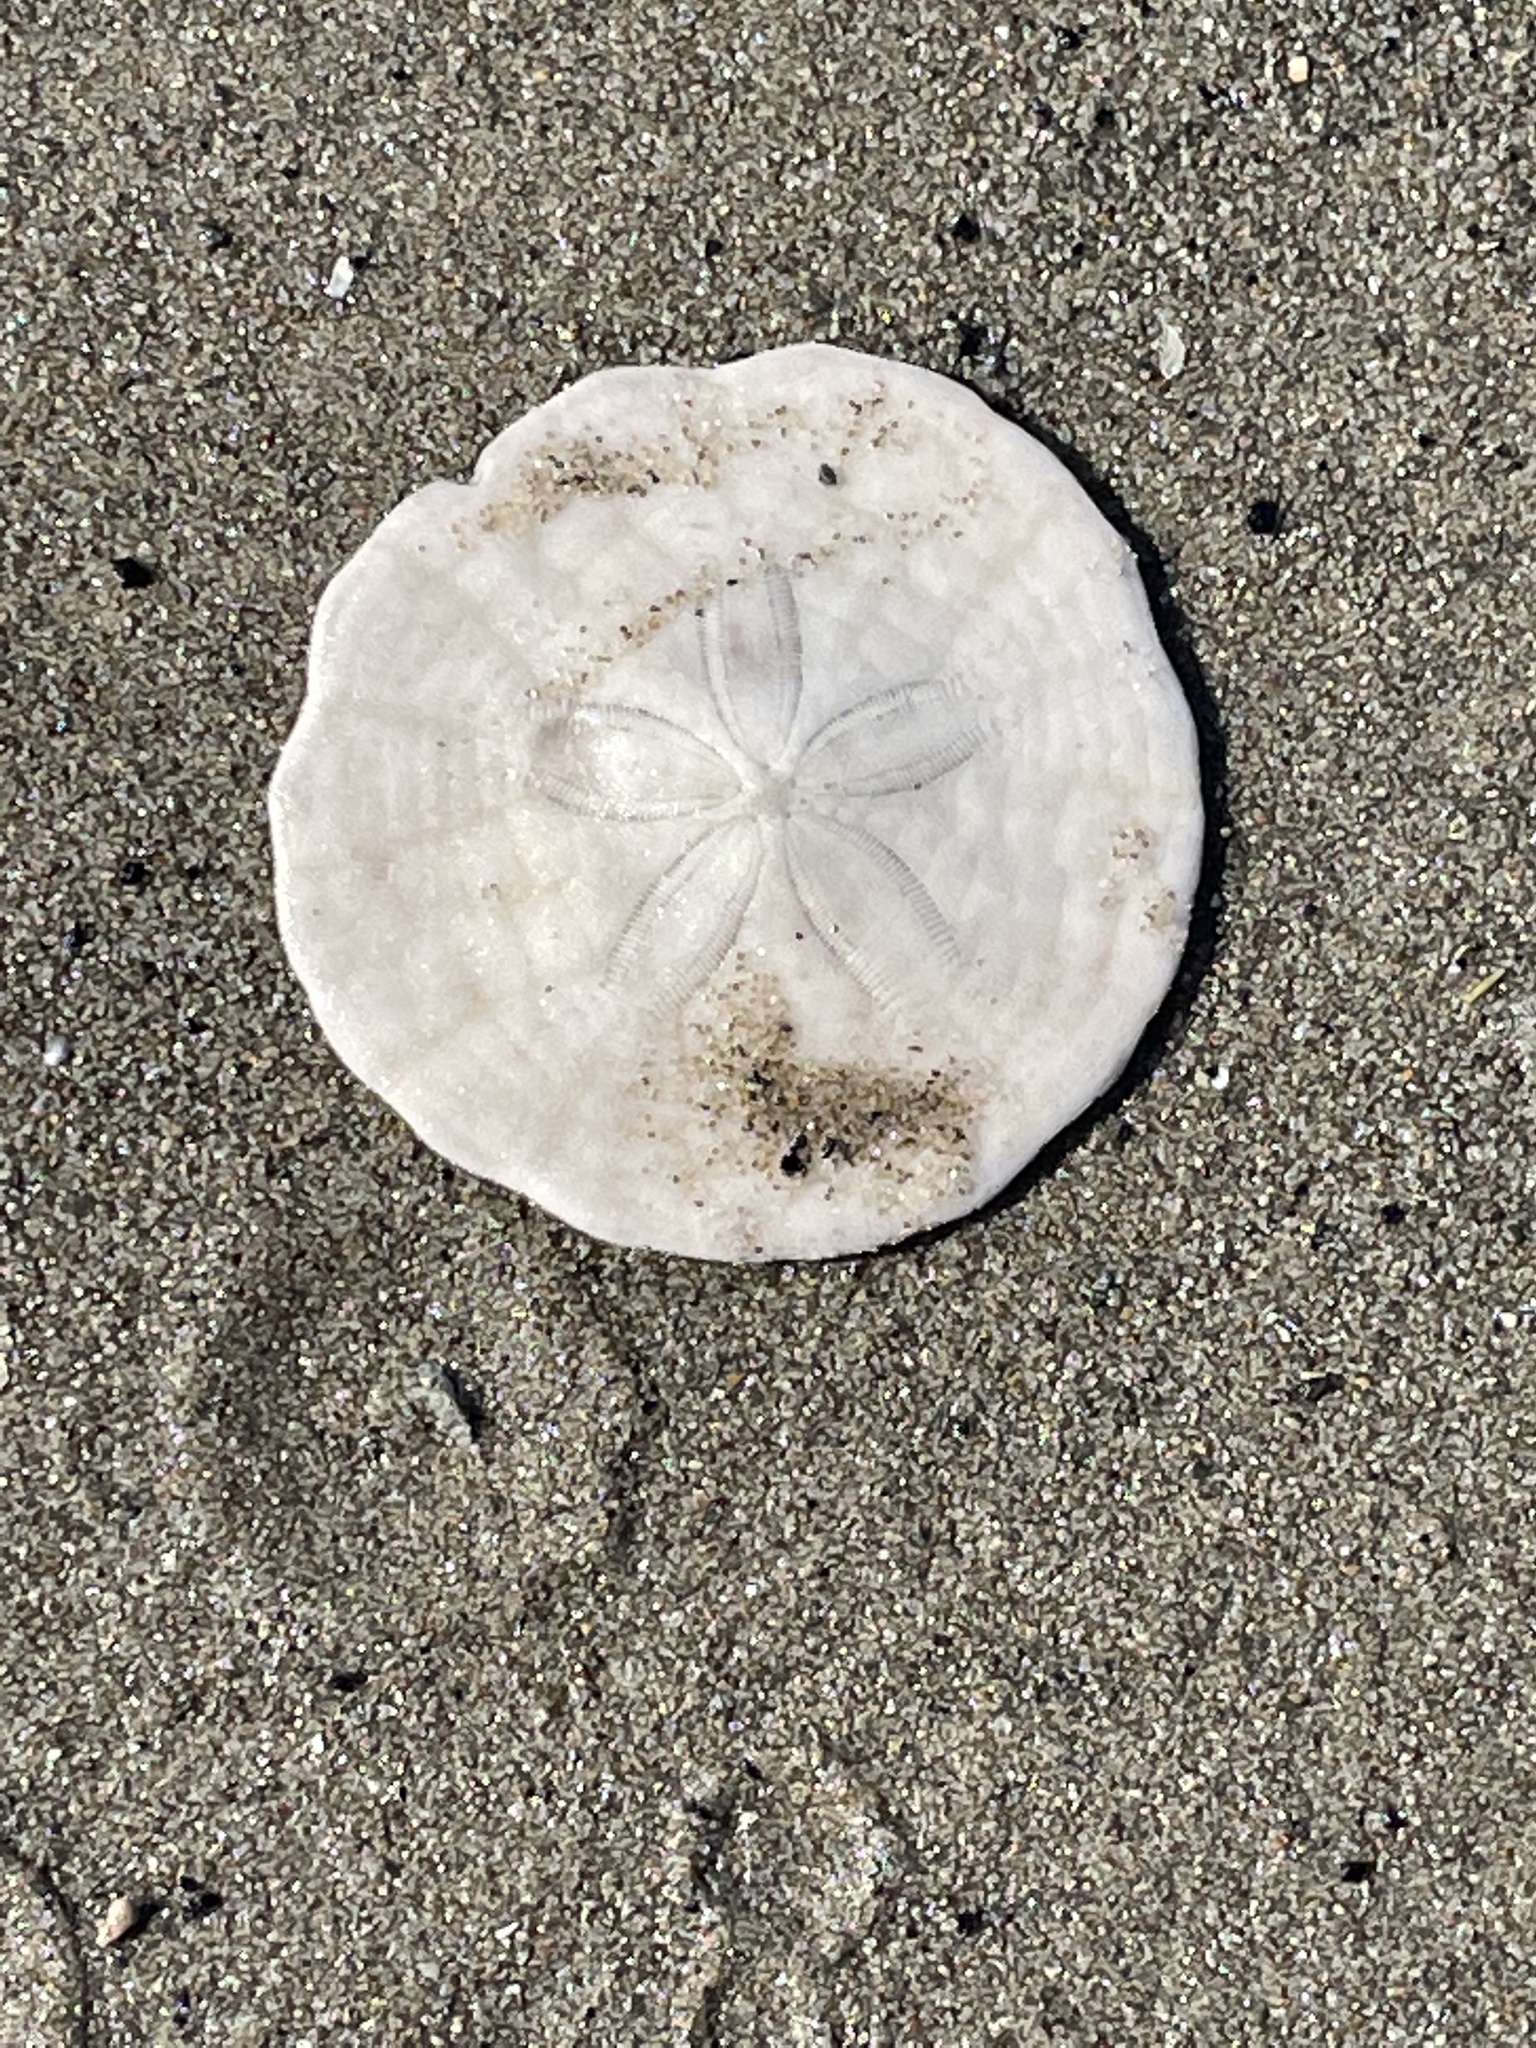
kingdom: Animalia
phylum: Echinodermata
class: Echinoidea
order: Echinolampadacea
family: Echinarachniidae
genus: Echinarachnius
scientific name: Echinarachnius parma
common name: Common sand dollar
